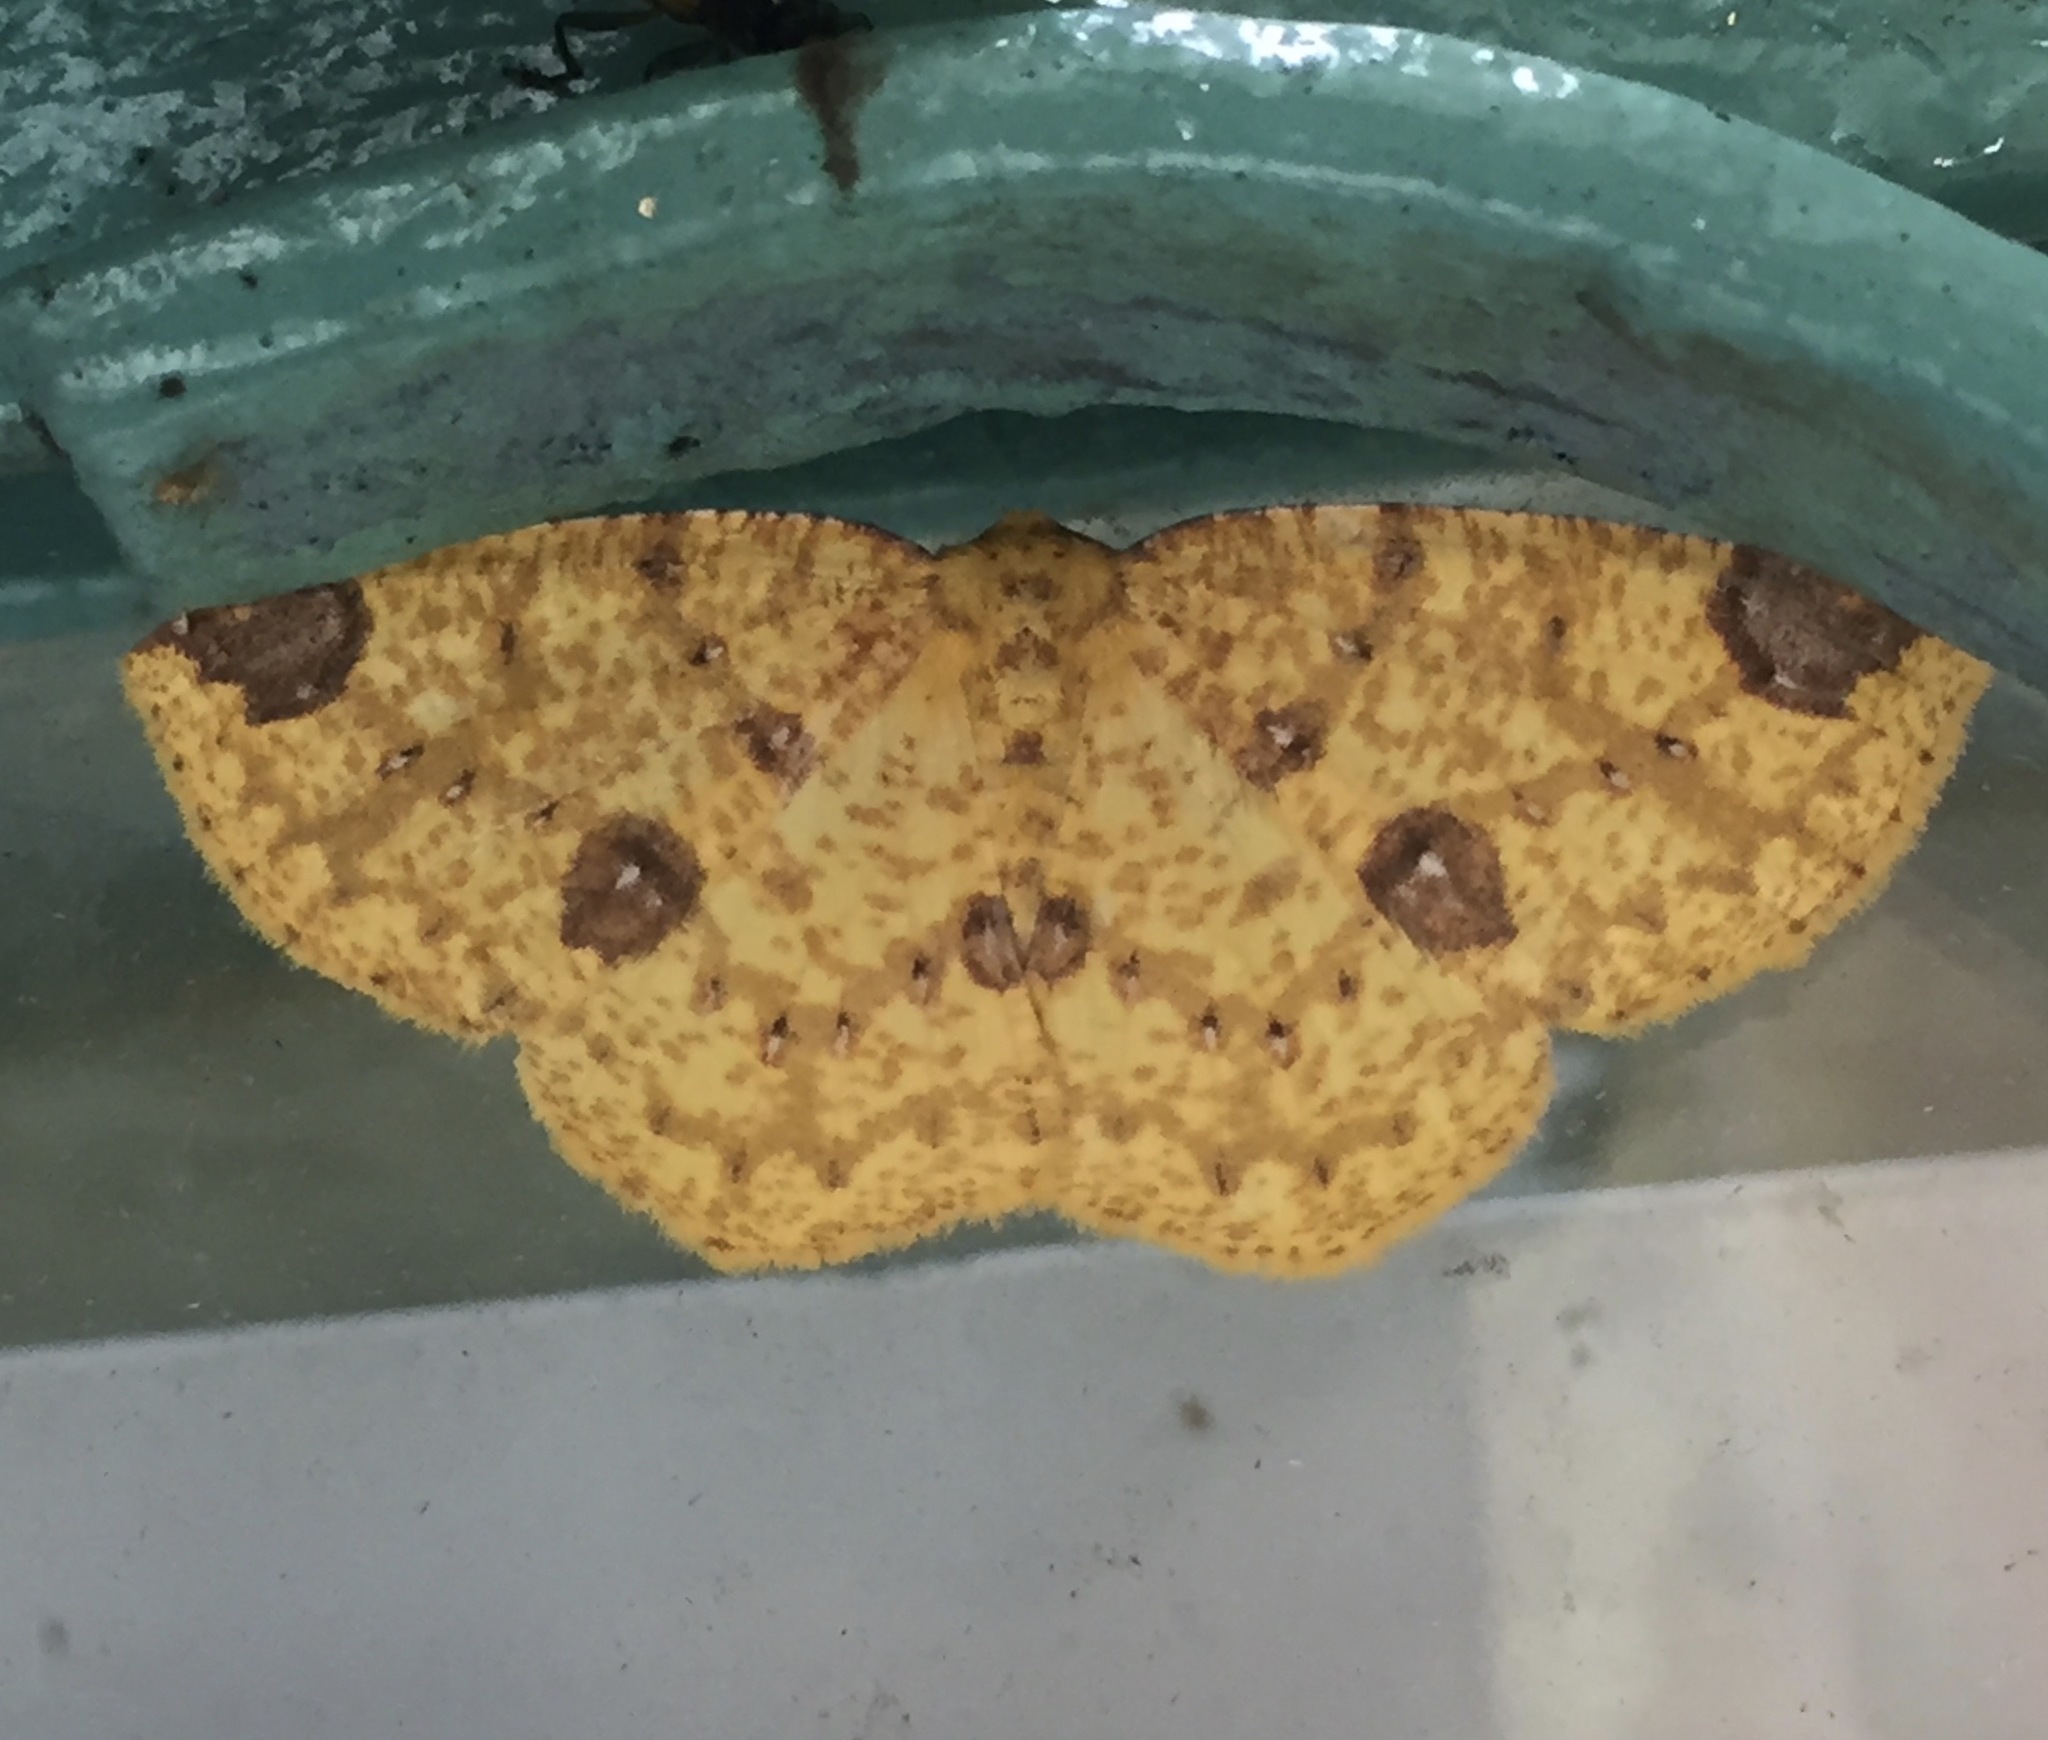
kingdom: Animalia
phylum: Arthropoda
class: Insecta
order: Lepidoptera
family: Geometridae
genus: Periclina
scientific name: Periclina rumiaria
